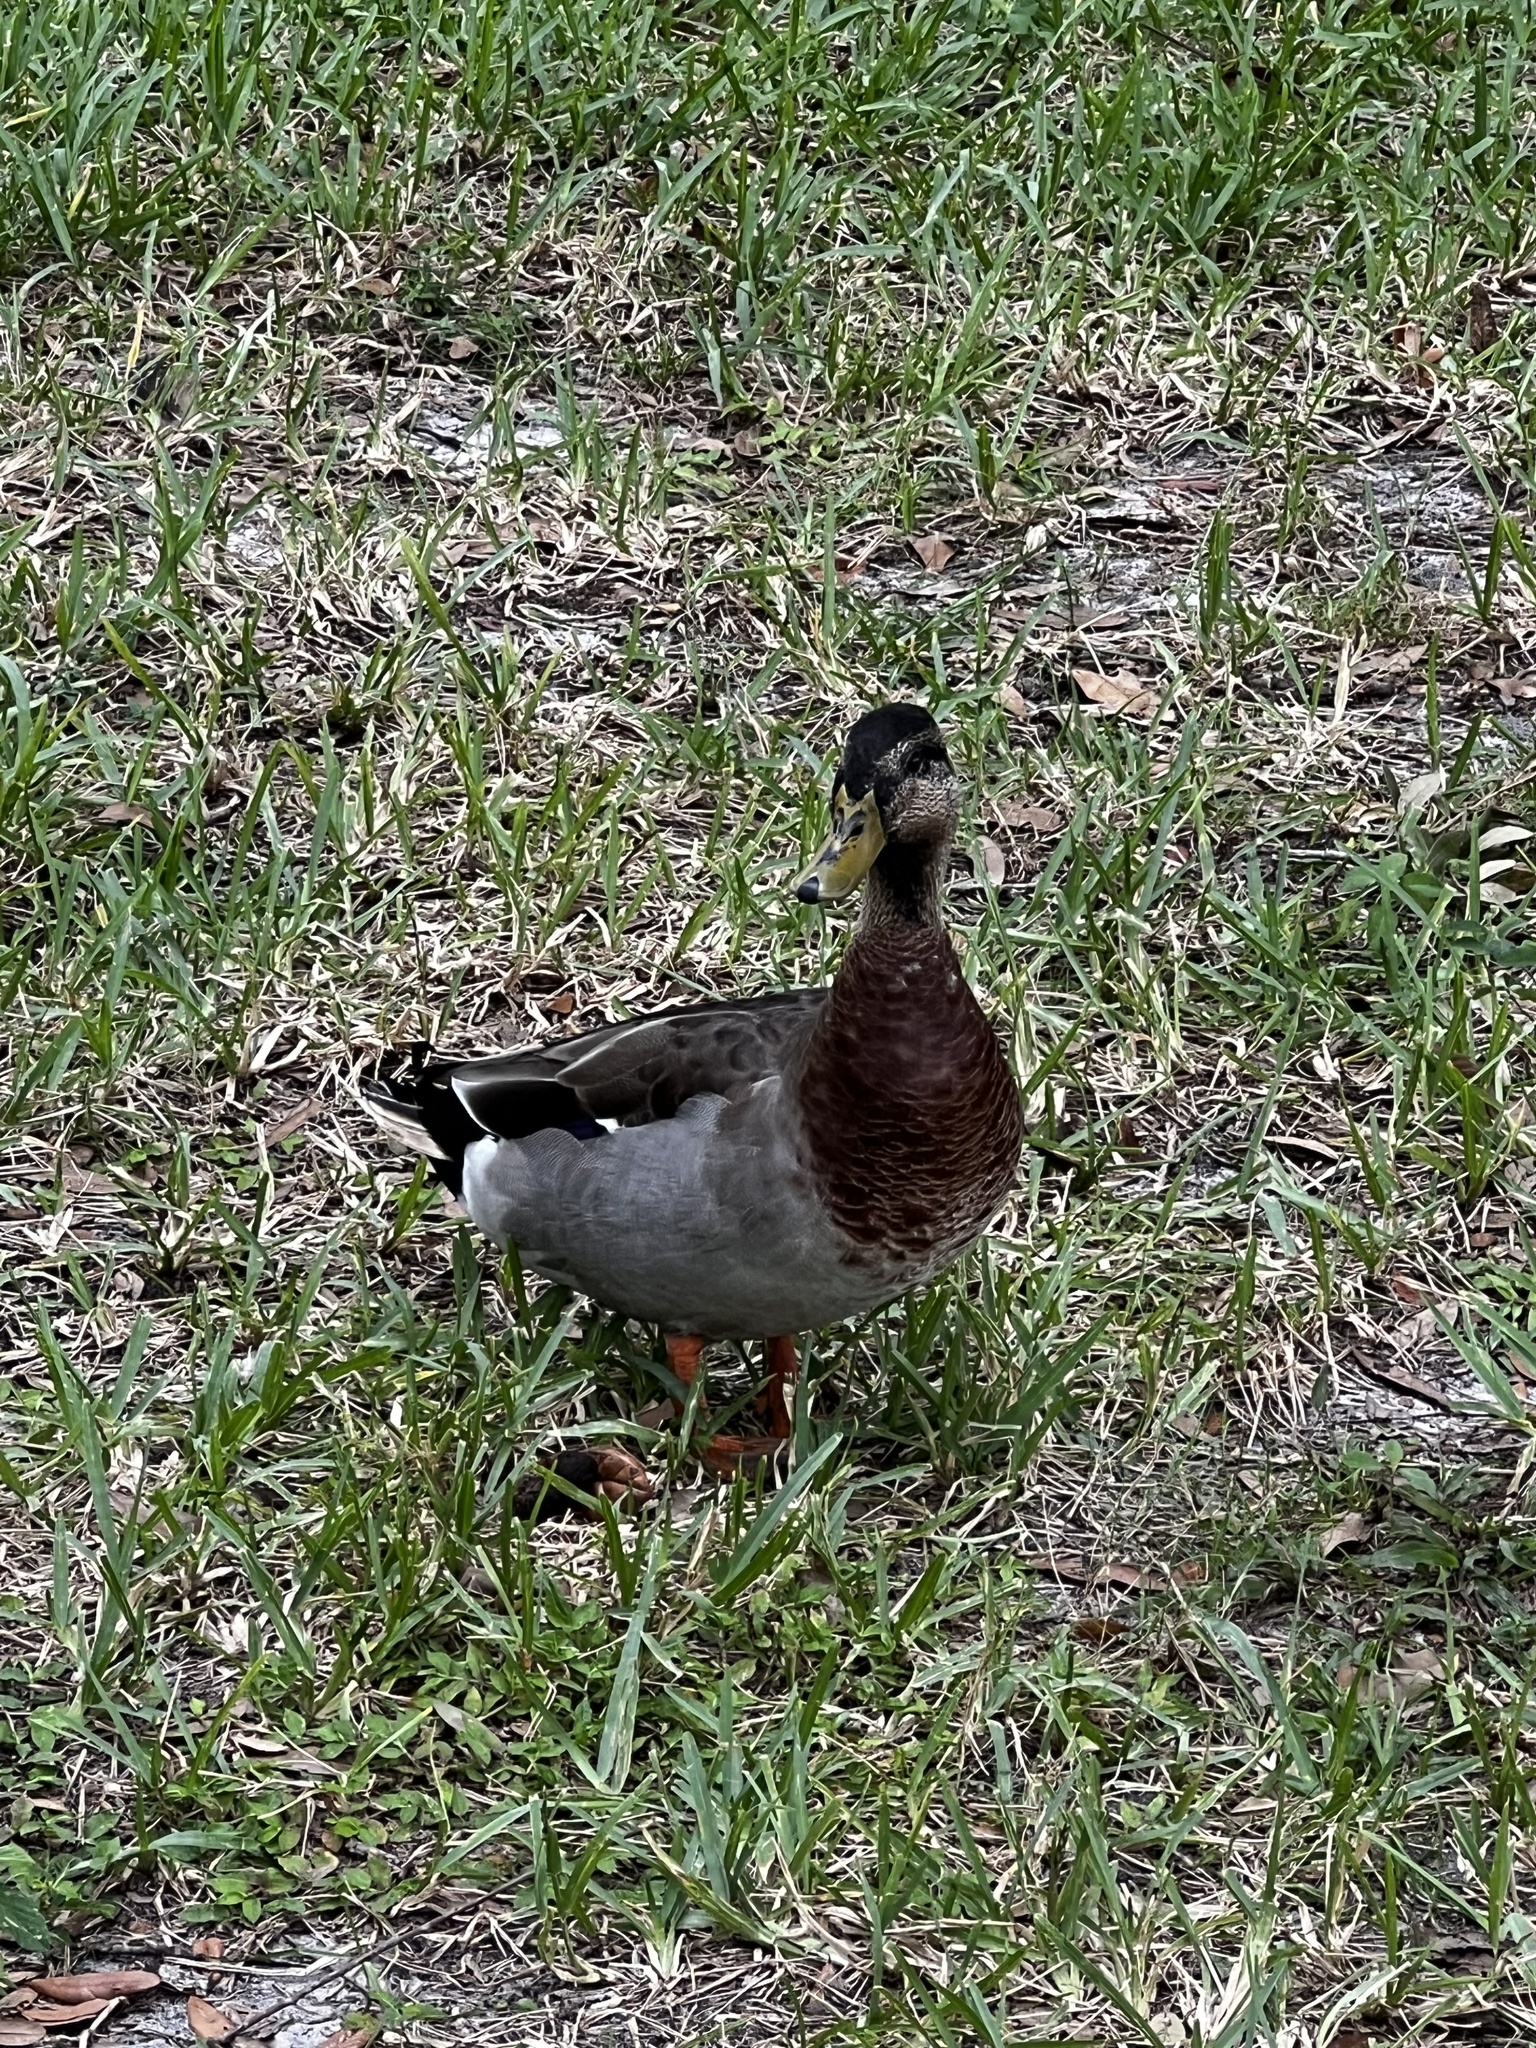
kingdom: Animalia
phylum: Chordata
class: Aves
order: Anseriformes
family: Anatidae
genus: Anas
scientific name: Anas
